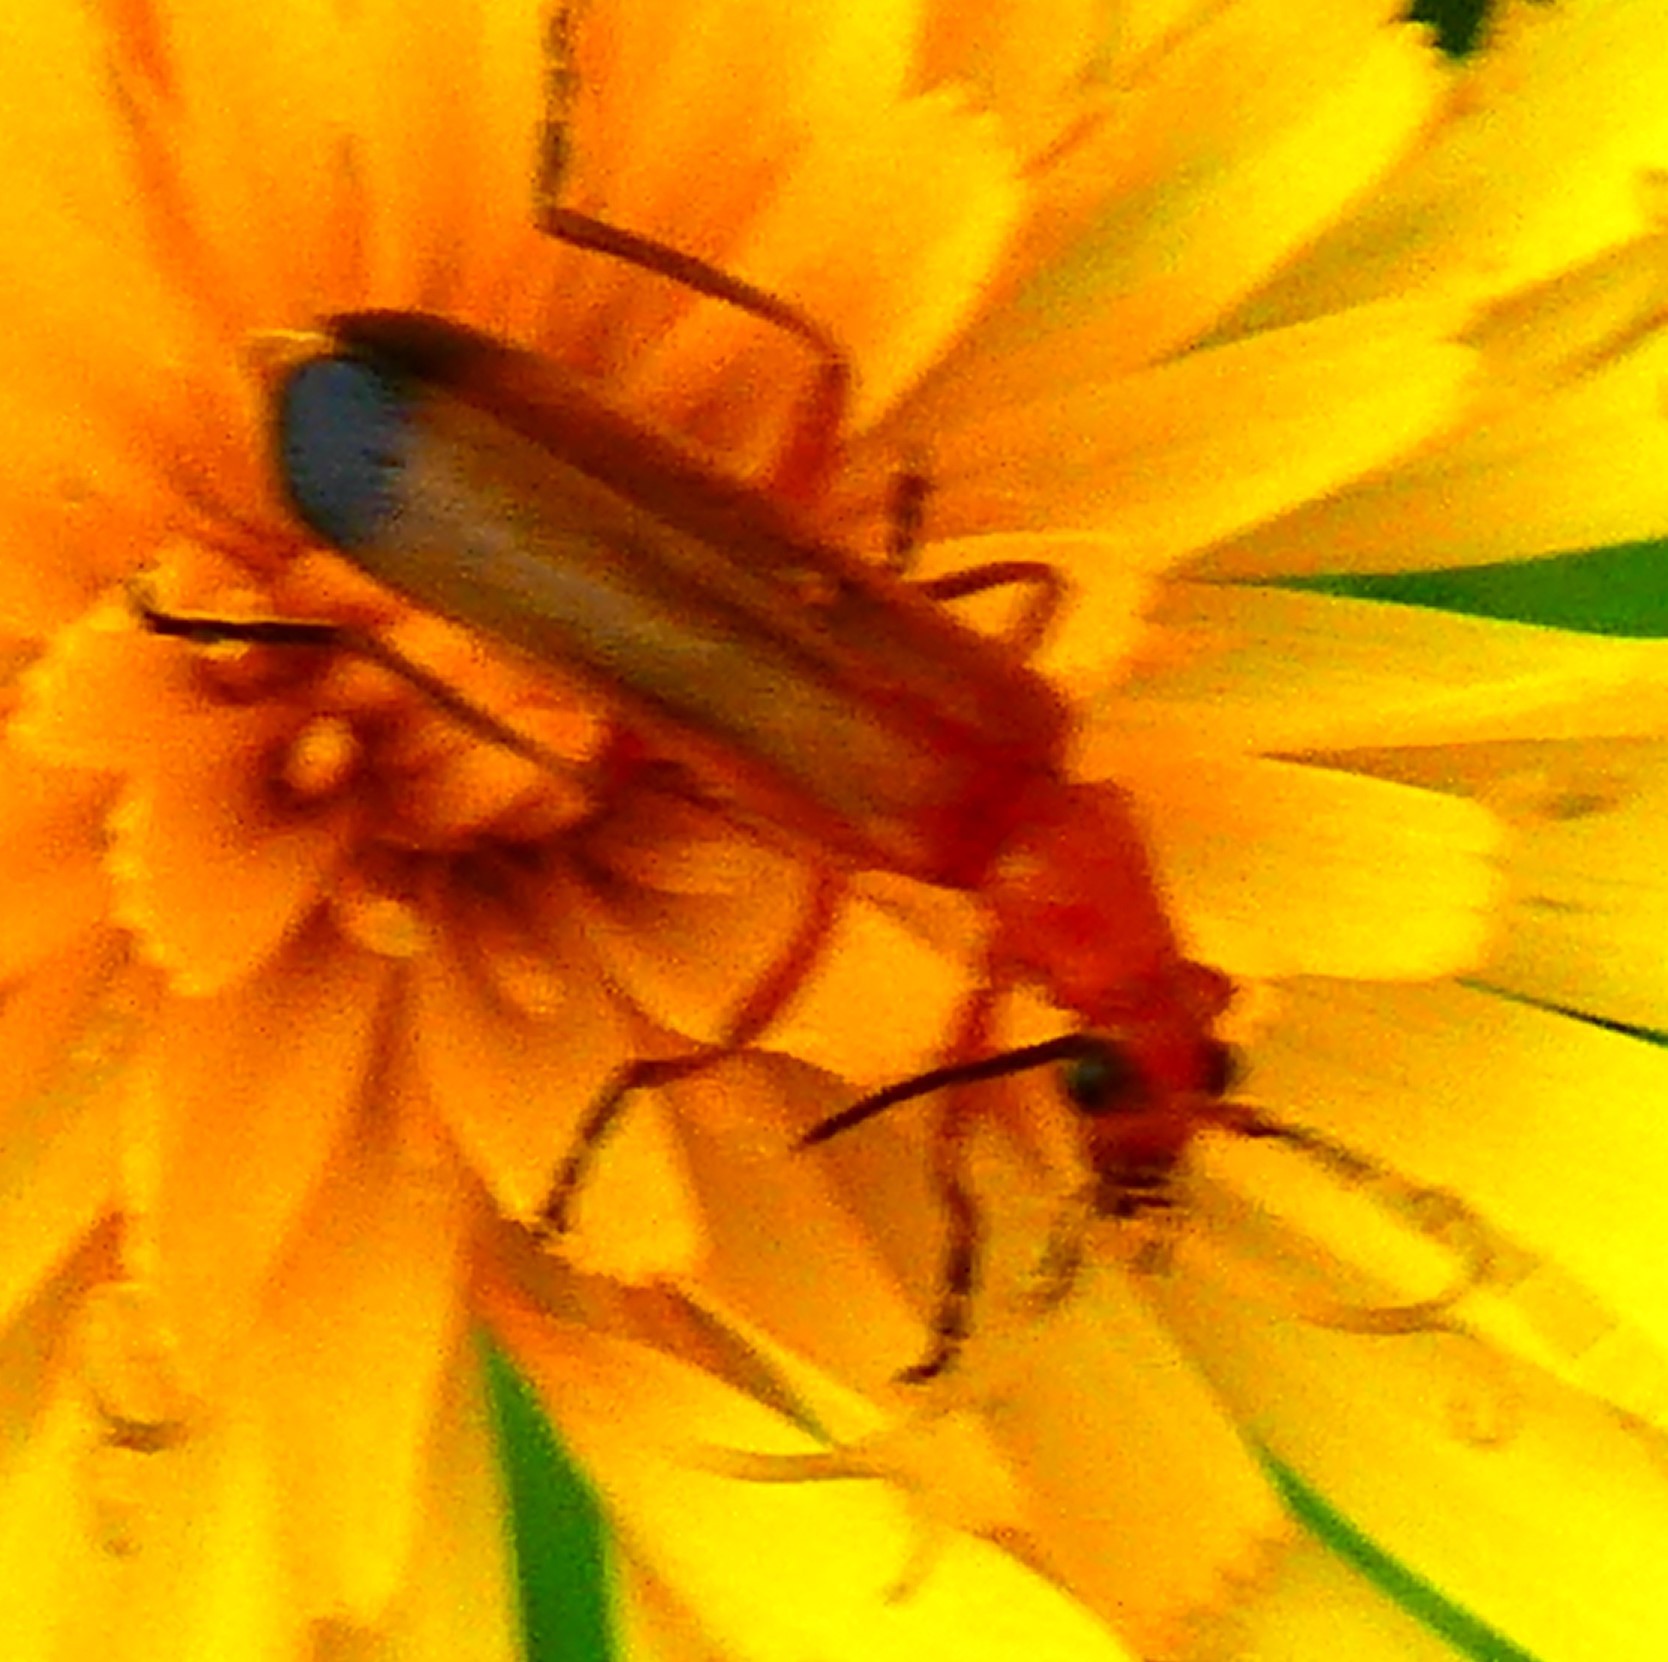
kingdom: Animalia
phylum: Arthropoda
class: Insecta
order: Coleoptera
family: Cantharidae
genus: Rhagonycha
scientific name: Rhagonycha fulva
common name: Common red soldier beetle
